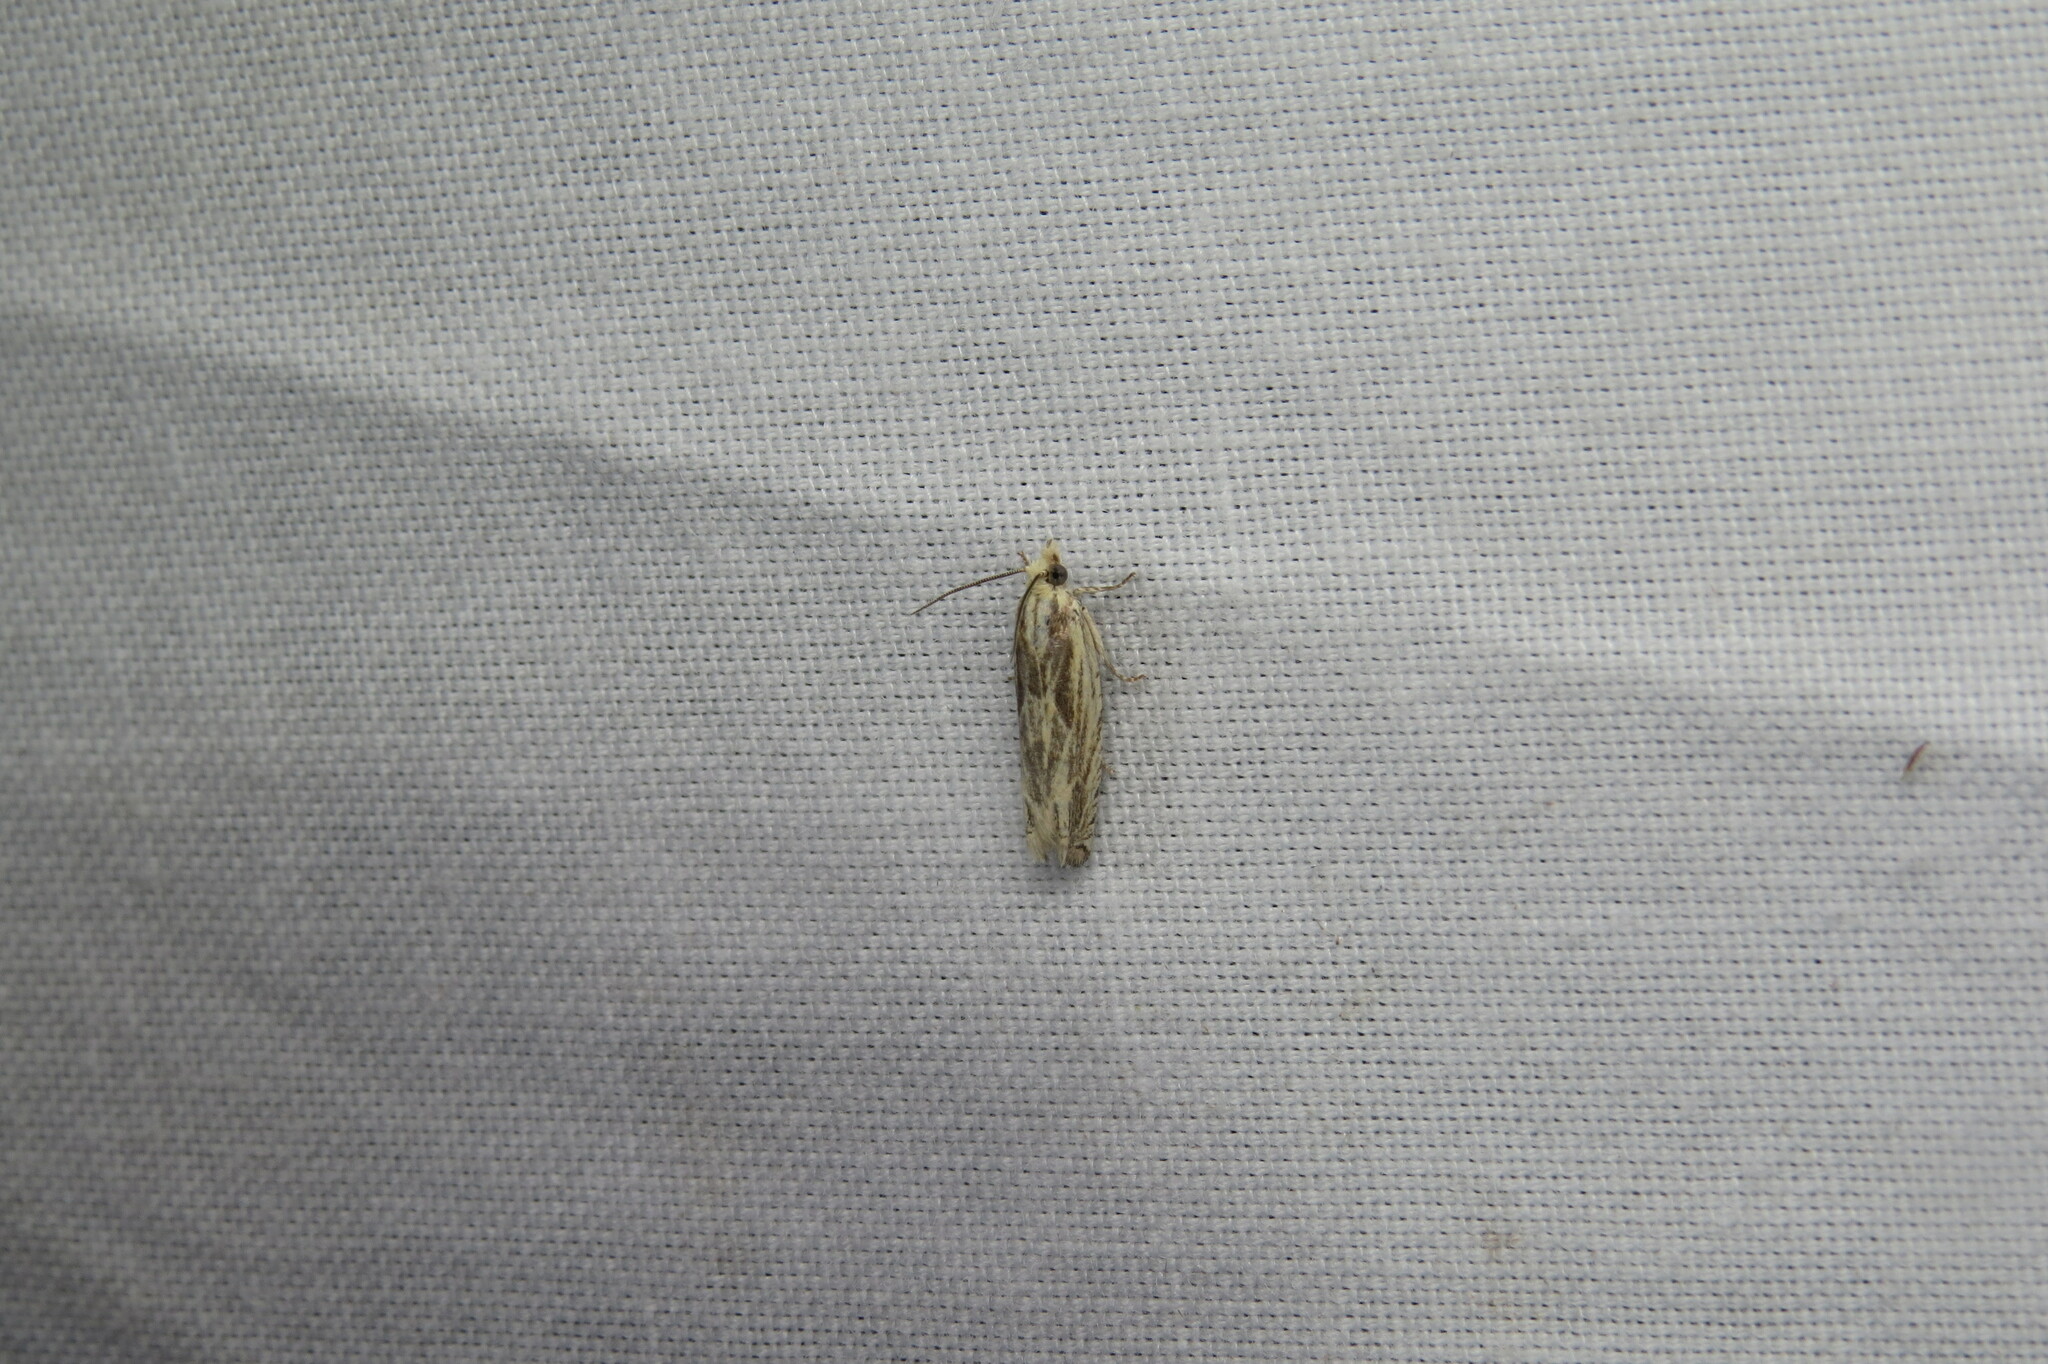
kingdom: Animalia
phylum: Arthropoda
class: Insecta
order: Lepidoptera
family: Tortricidae
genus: Eucosma
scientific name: Eucosma olivaceana
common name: Olivaceous eucosma moth
